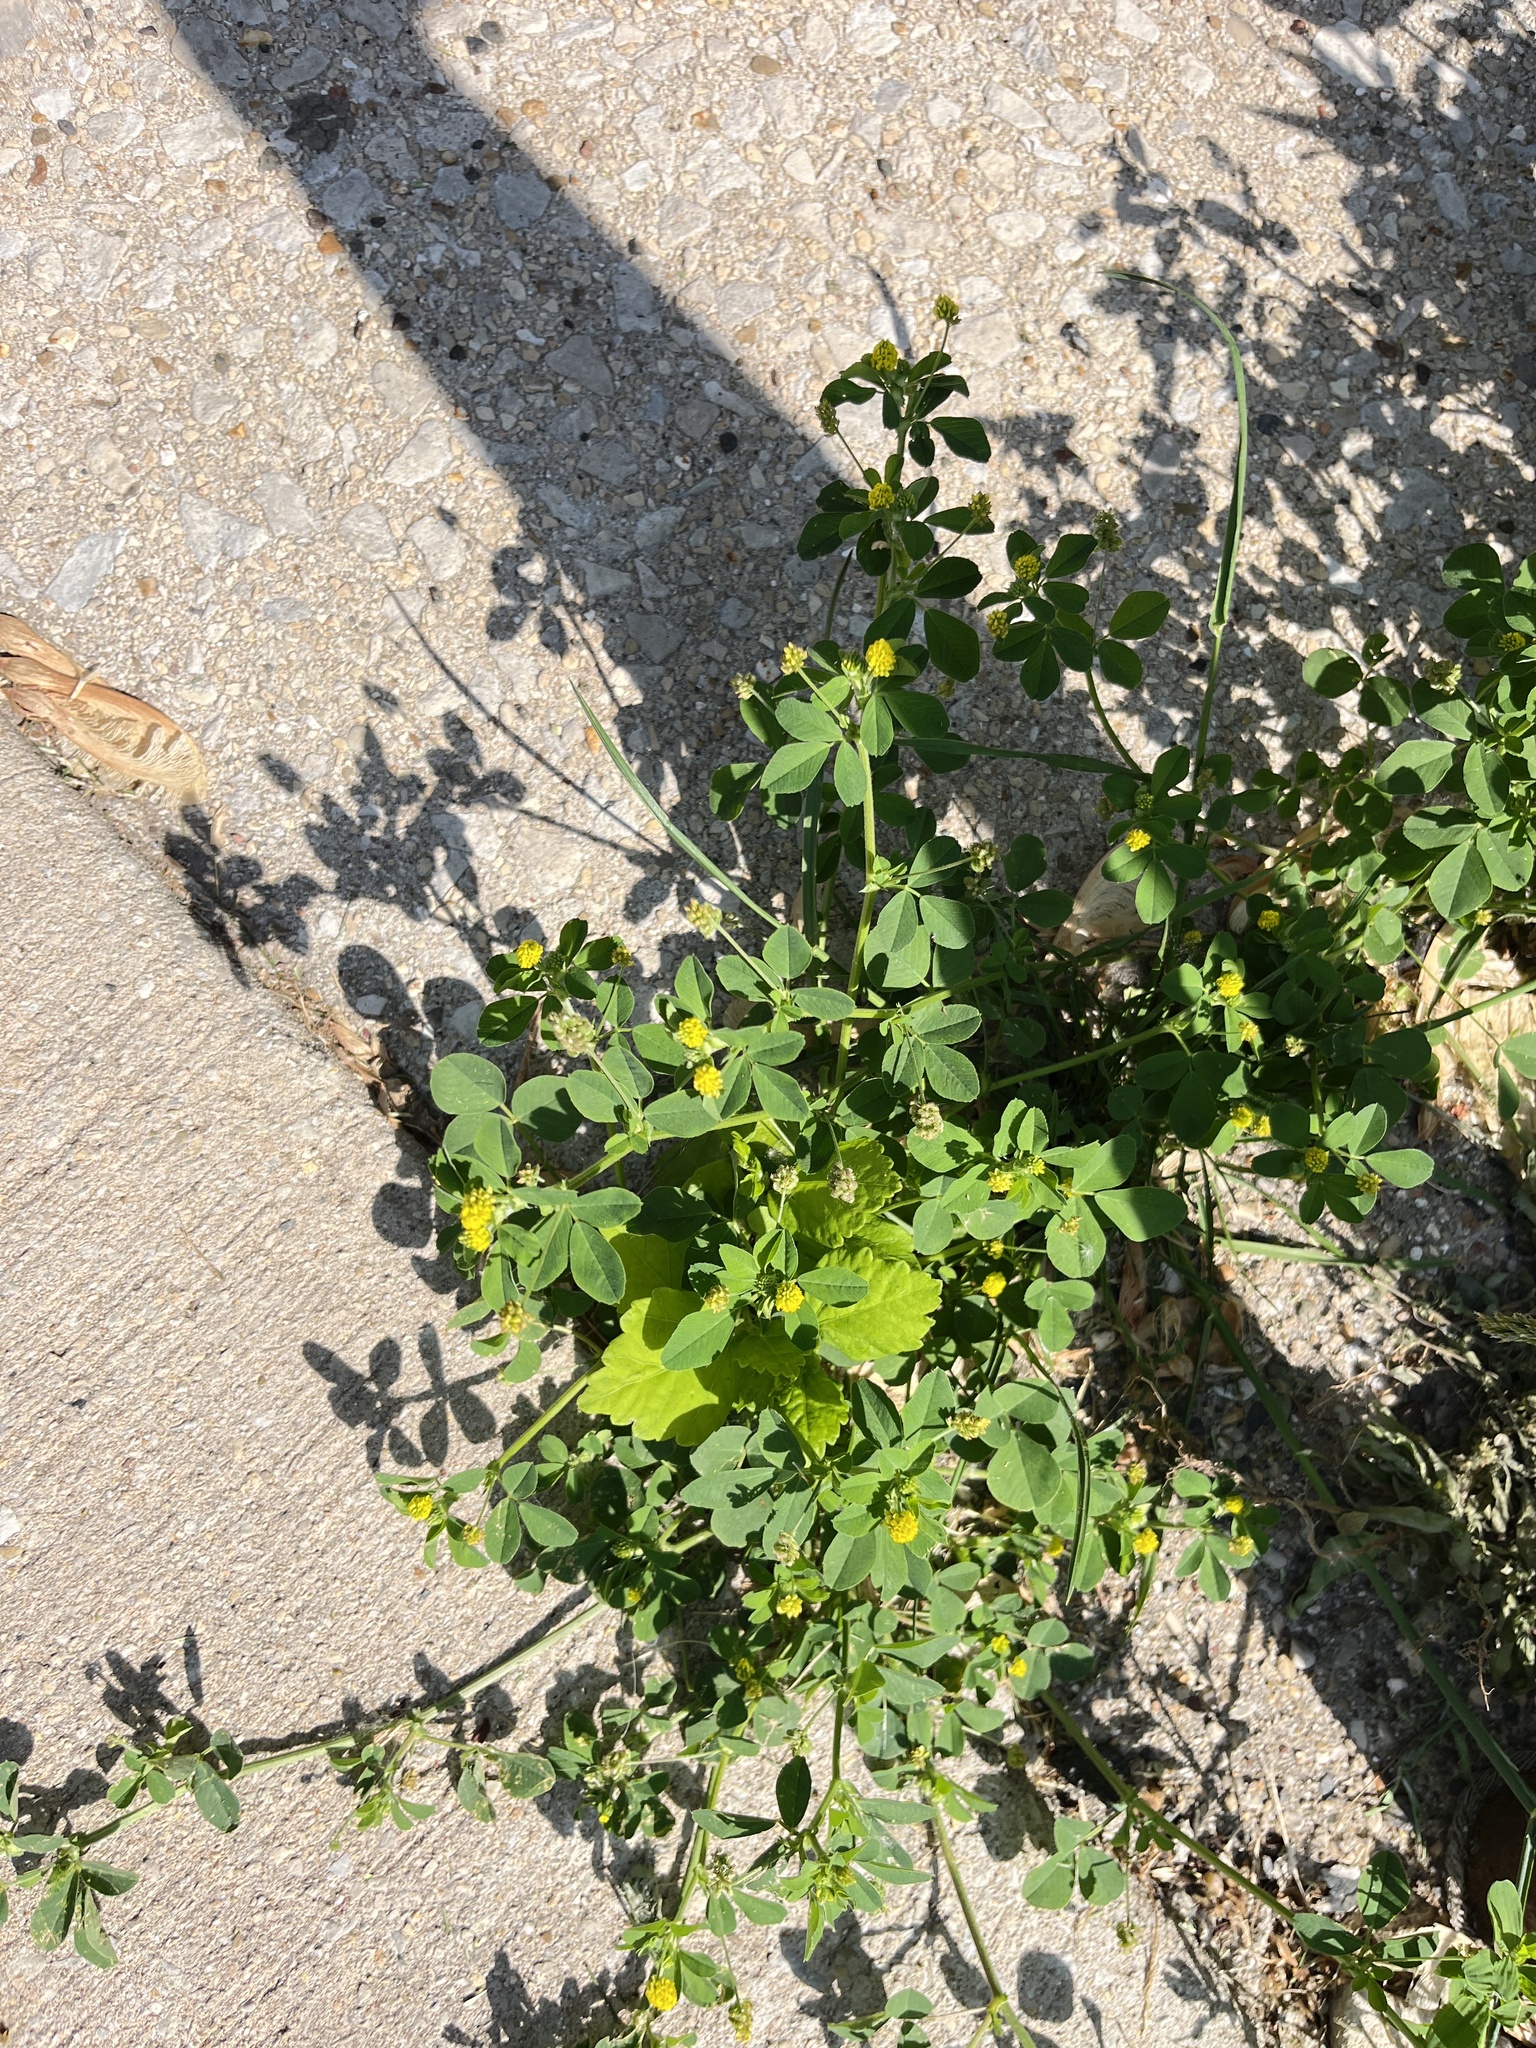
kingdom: Plantae
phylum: Tracheophyta
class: Magnoliopsida
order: Fabales
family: Fabaceae
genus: Medicago
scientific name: Medicago lupulina
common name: Black medick
